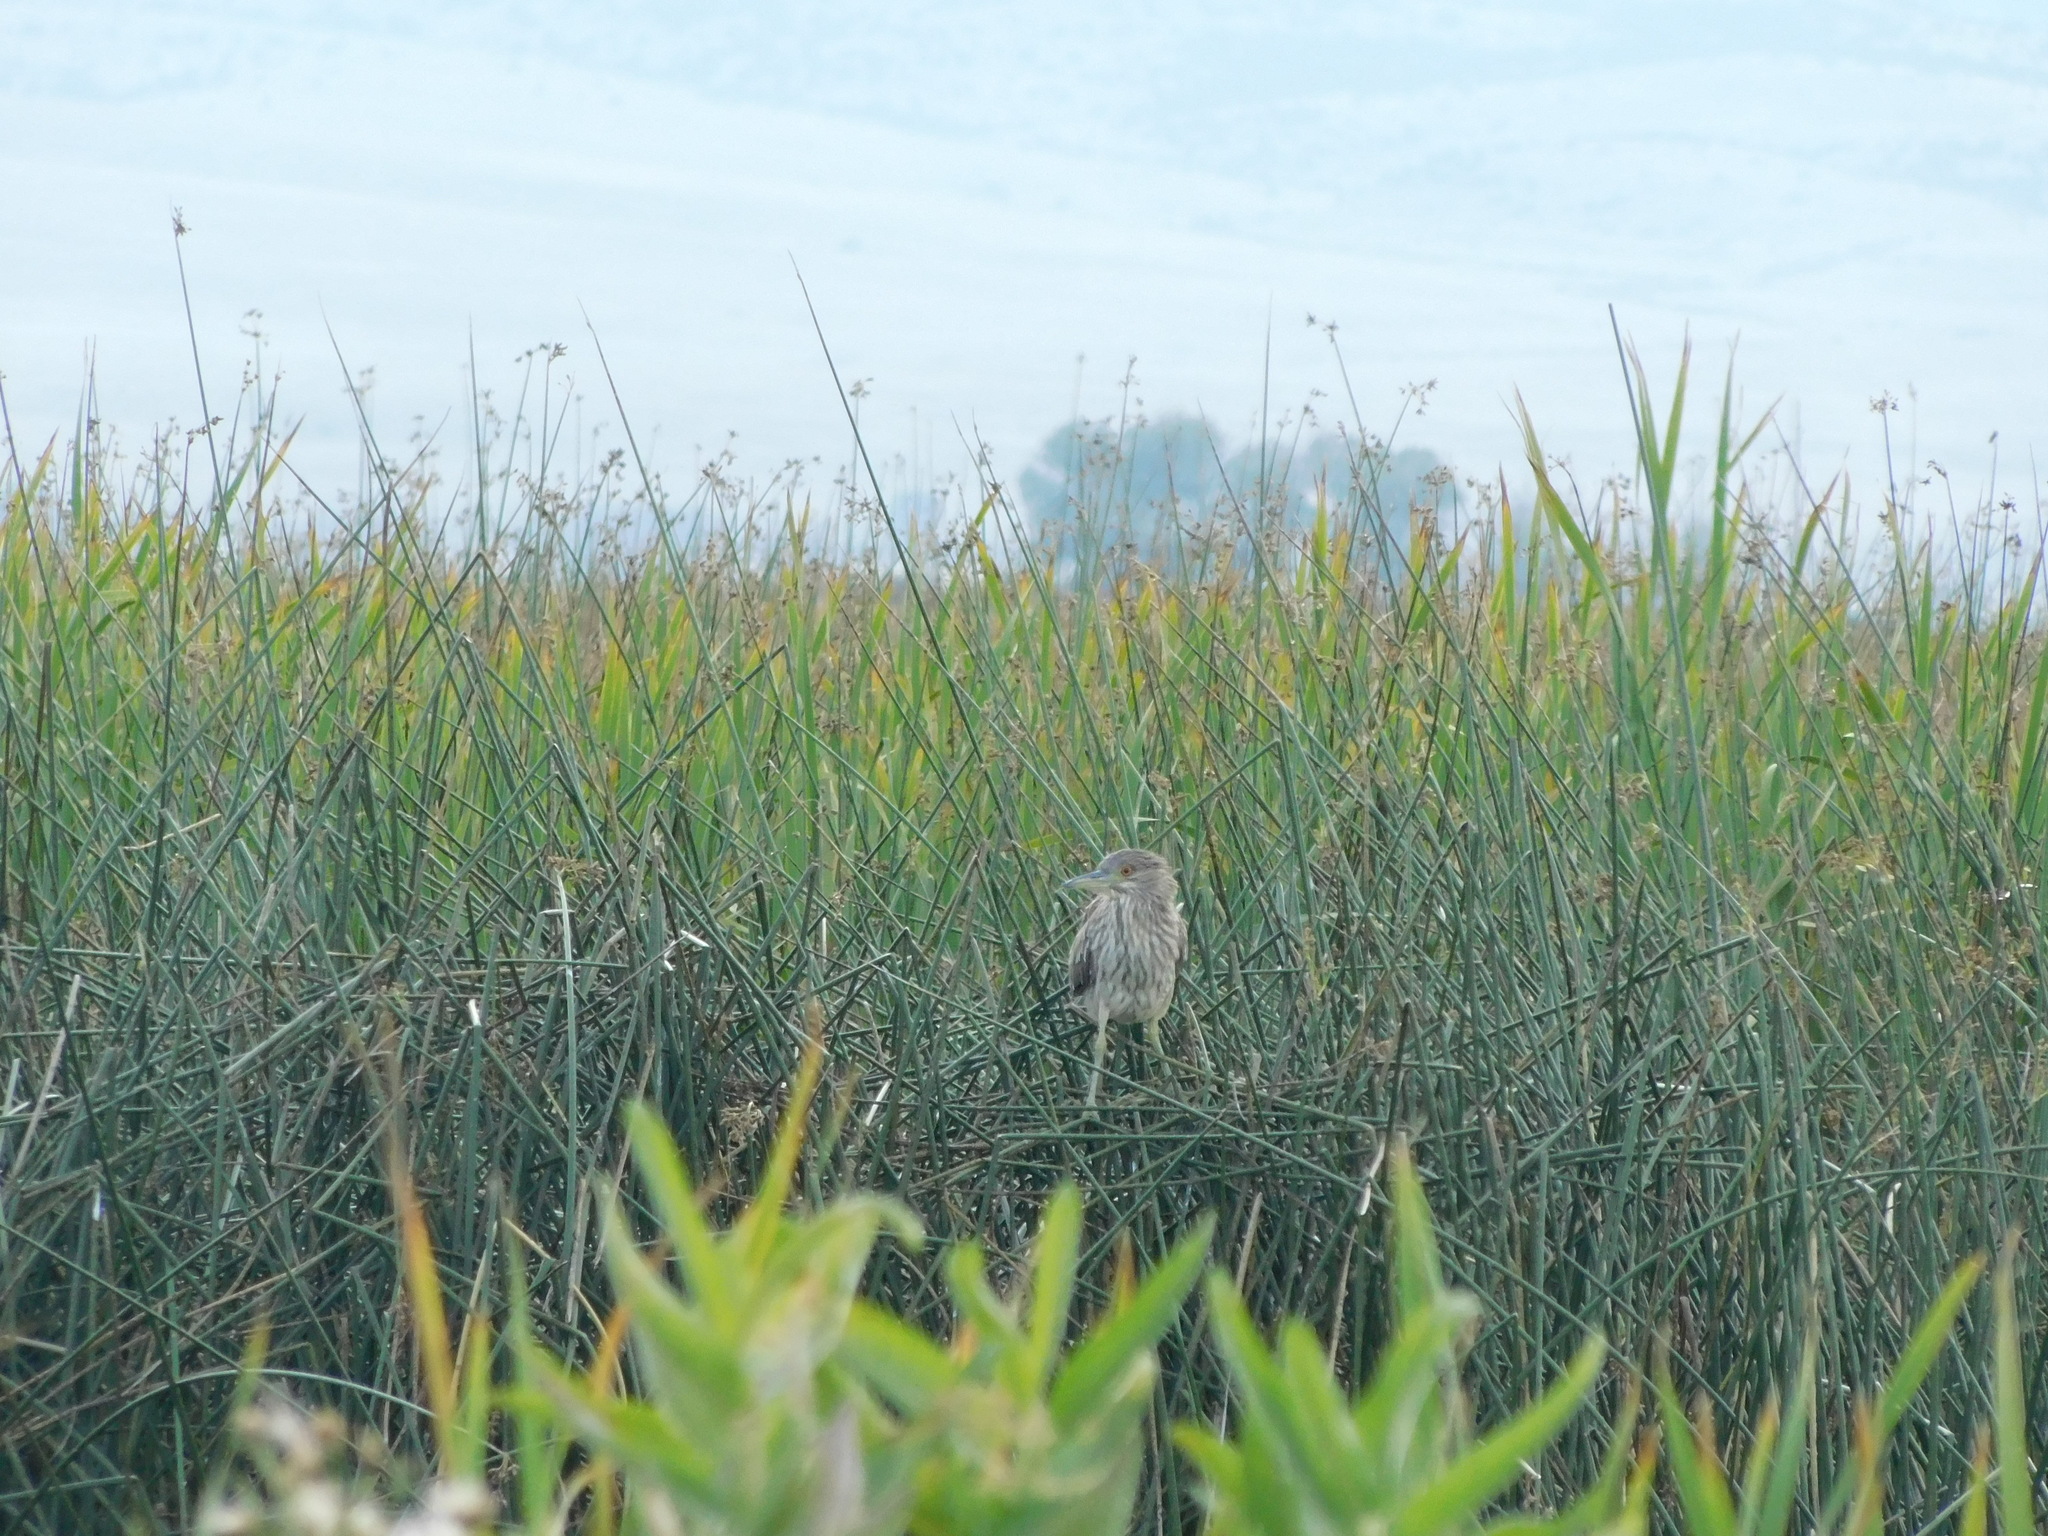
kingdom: Animalia
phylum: Chordata
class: Aves
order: Pelecaniformes
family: Ardeidae
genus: Nycticorax
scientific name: Nycticorax nycticorax
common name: Black-crowned night heron
